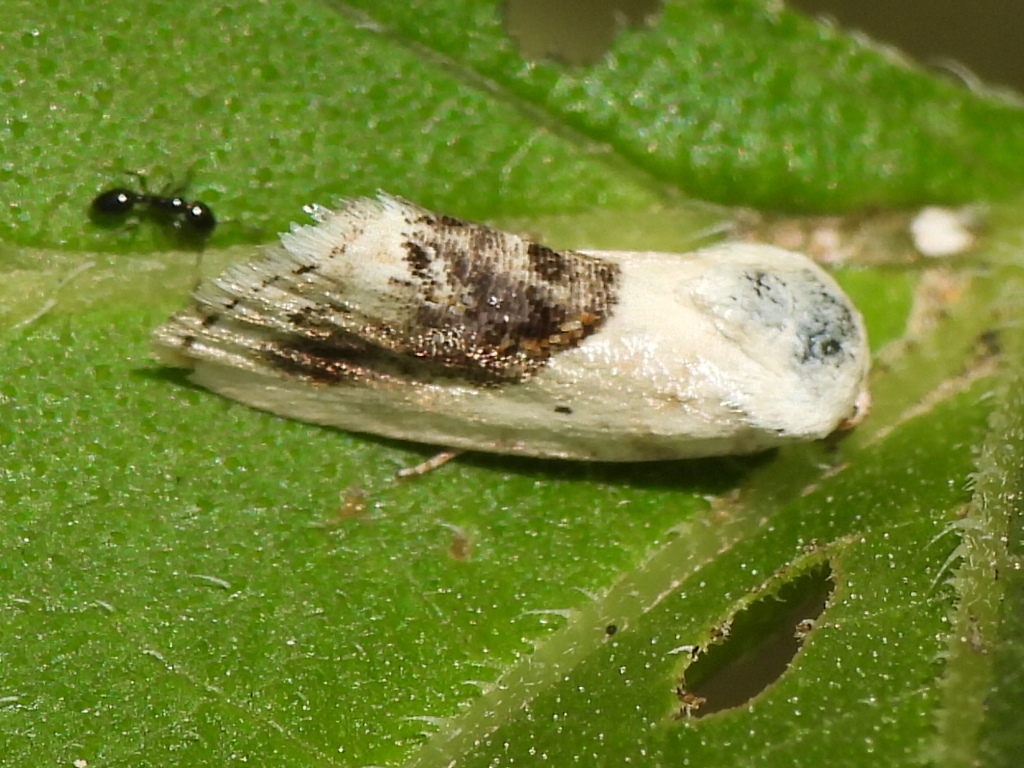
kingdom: Animalia
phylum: Arthropoda
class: Insecta
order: Lepidoptera
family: Noctuidae
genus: Acontia
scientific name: Acontia erastrioides
